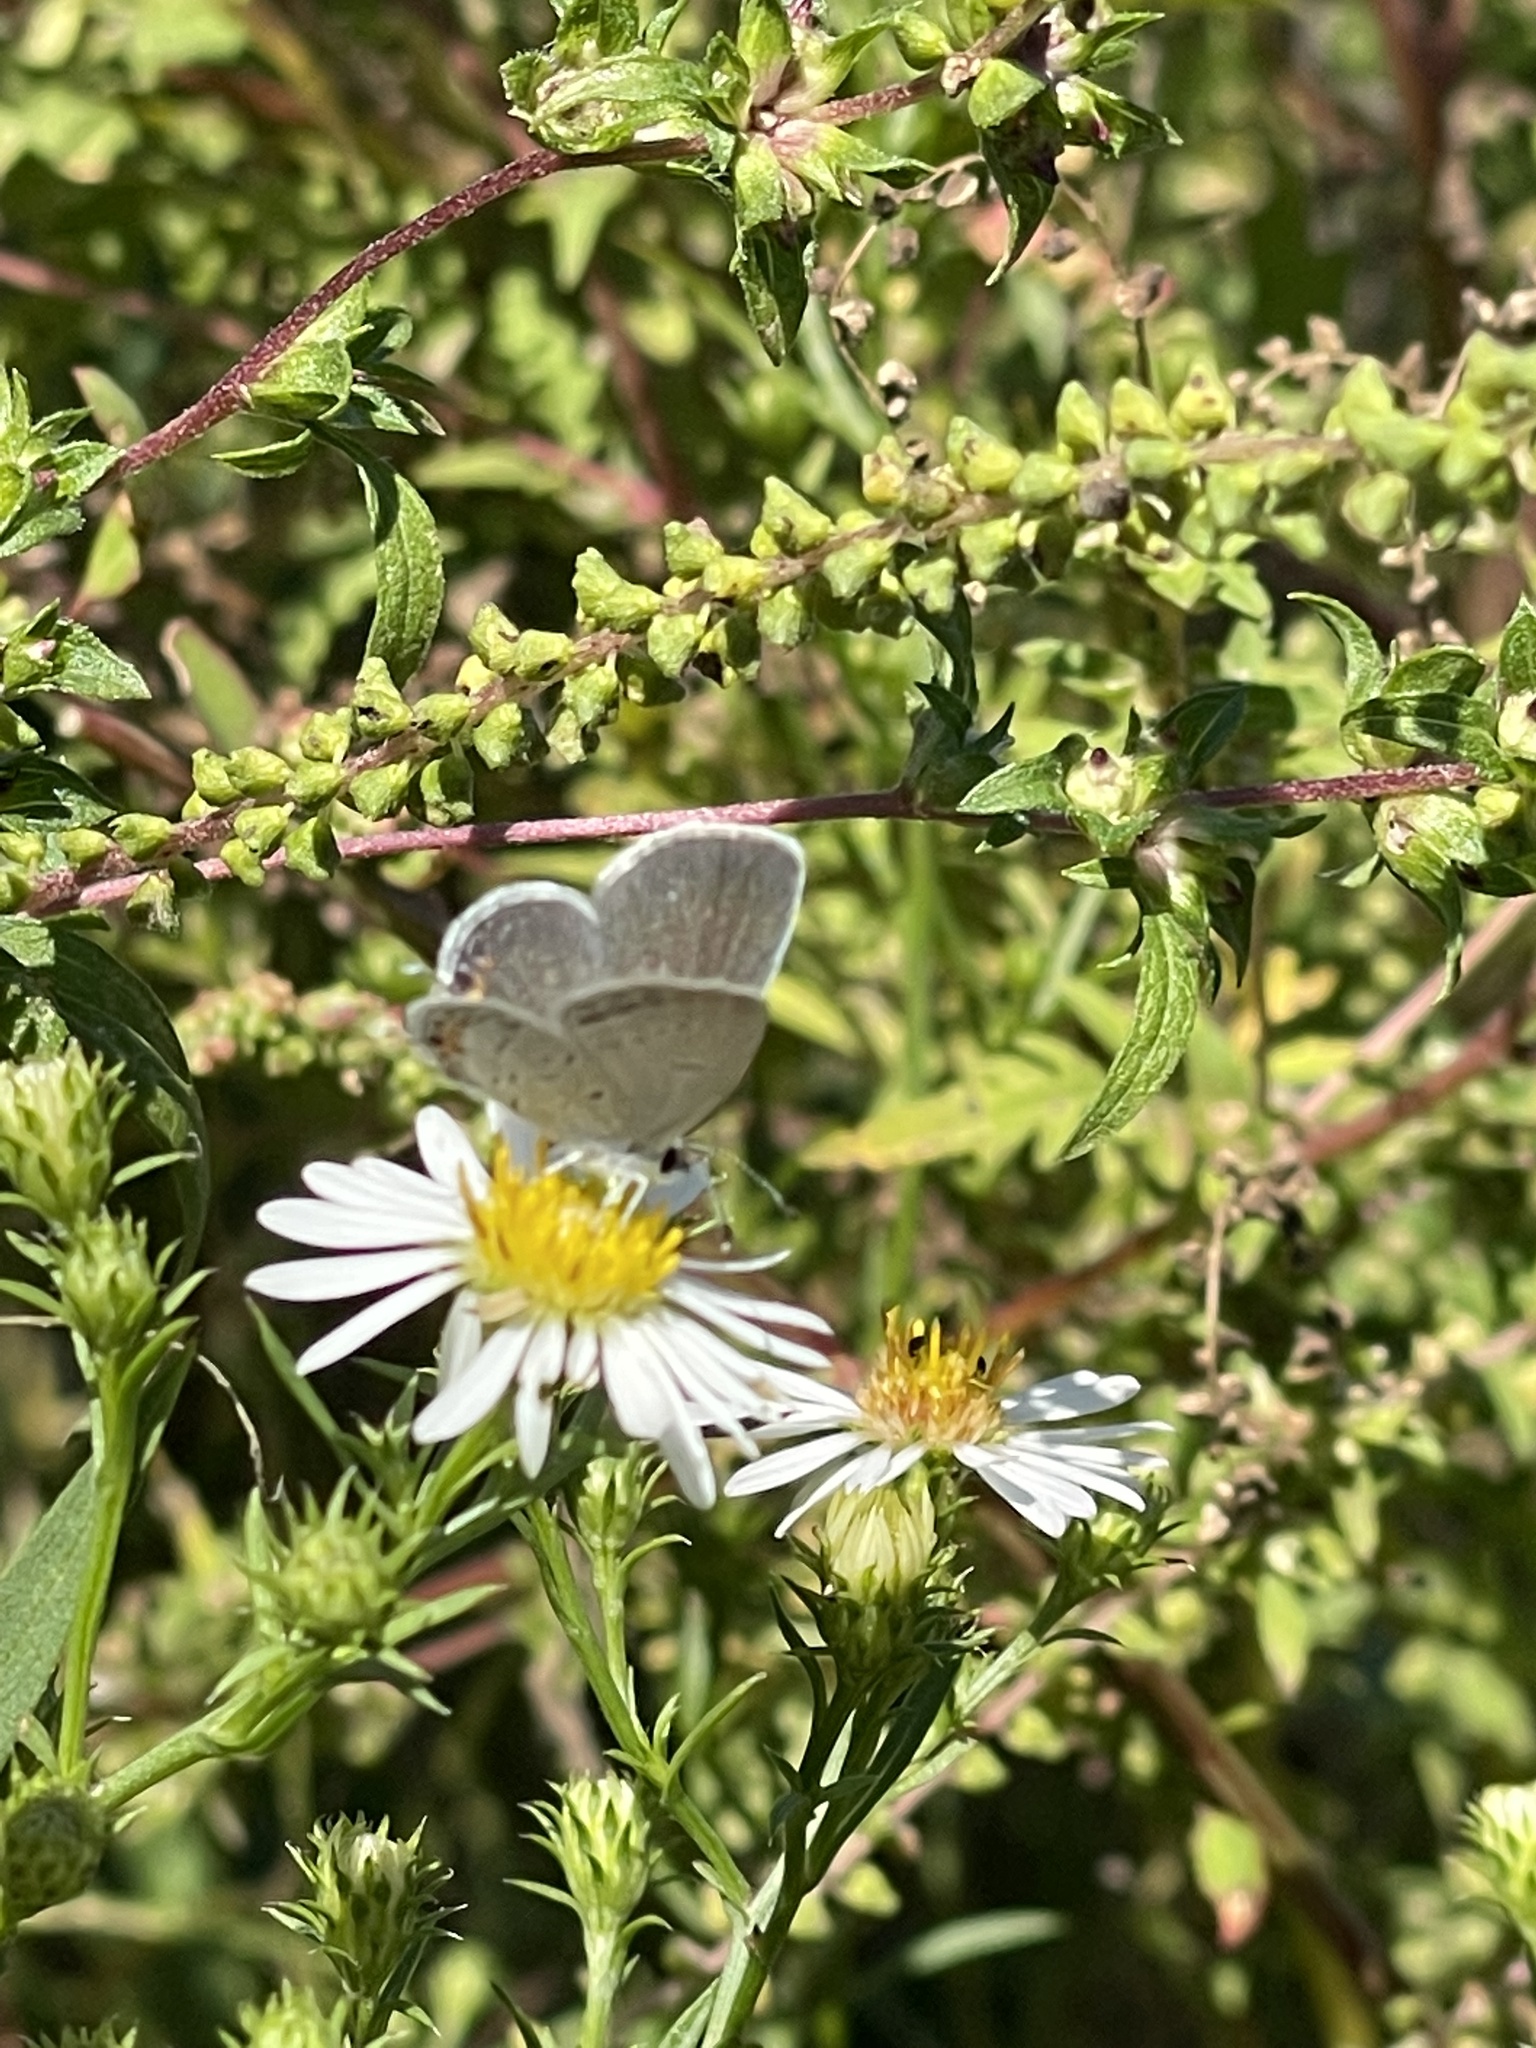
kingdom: Animalia
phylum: Arthropoda
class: Insecta
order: Lepidoptera
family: Lycaenidae
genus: Elkalyce
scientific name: Elkalyce comyntas
